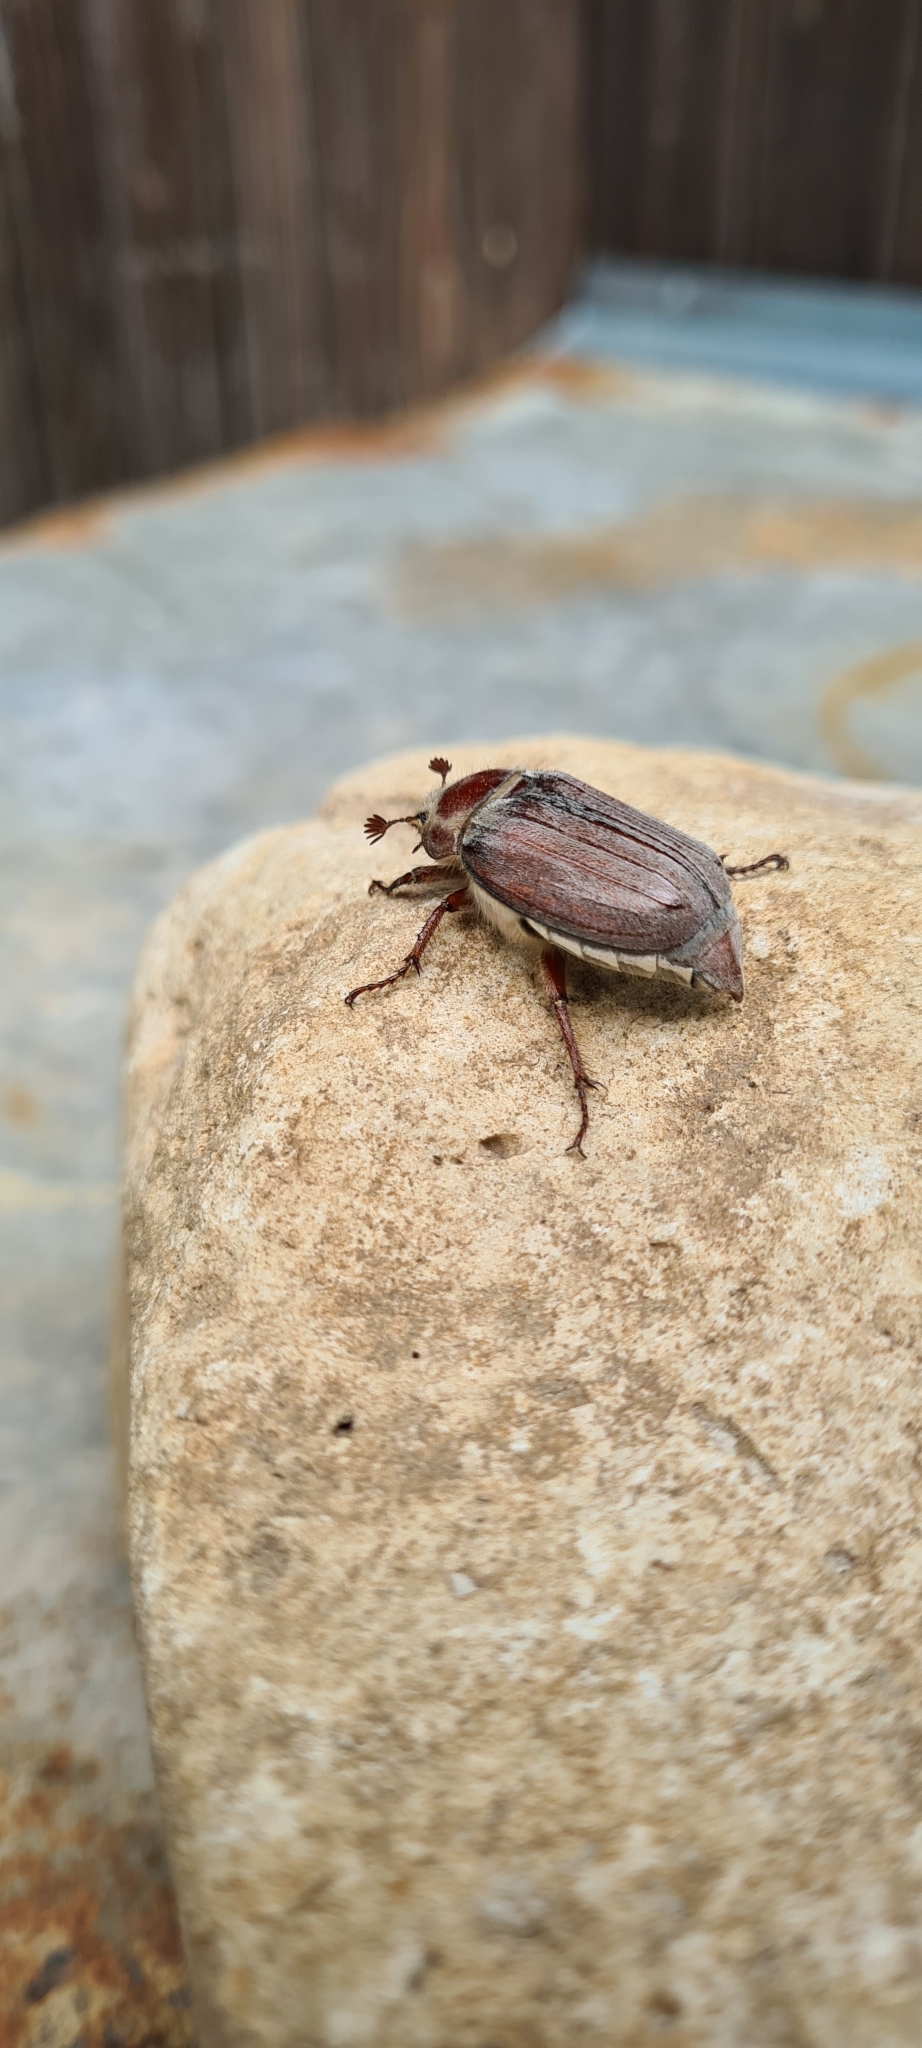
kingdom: Animalia
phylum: Arthropoda
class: Insecta
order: Coleoptera
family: Scarabaeidae
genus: Melolontha
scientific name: Melolontha hippocastani
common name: Chestnut cockchafer
